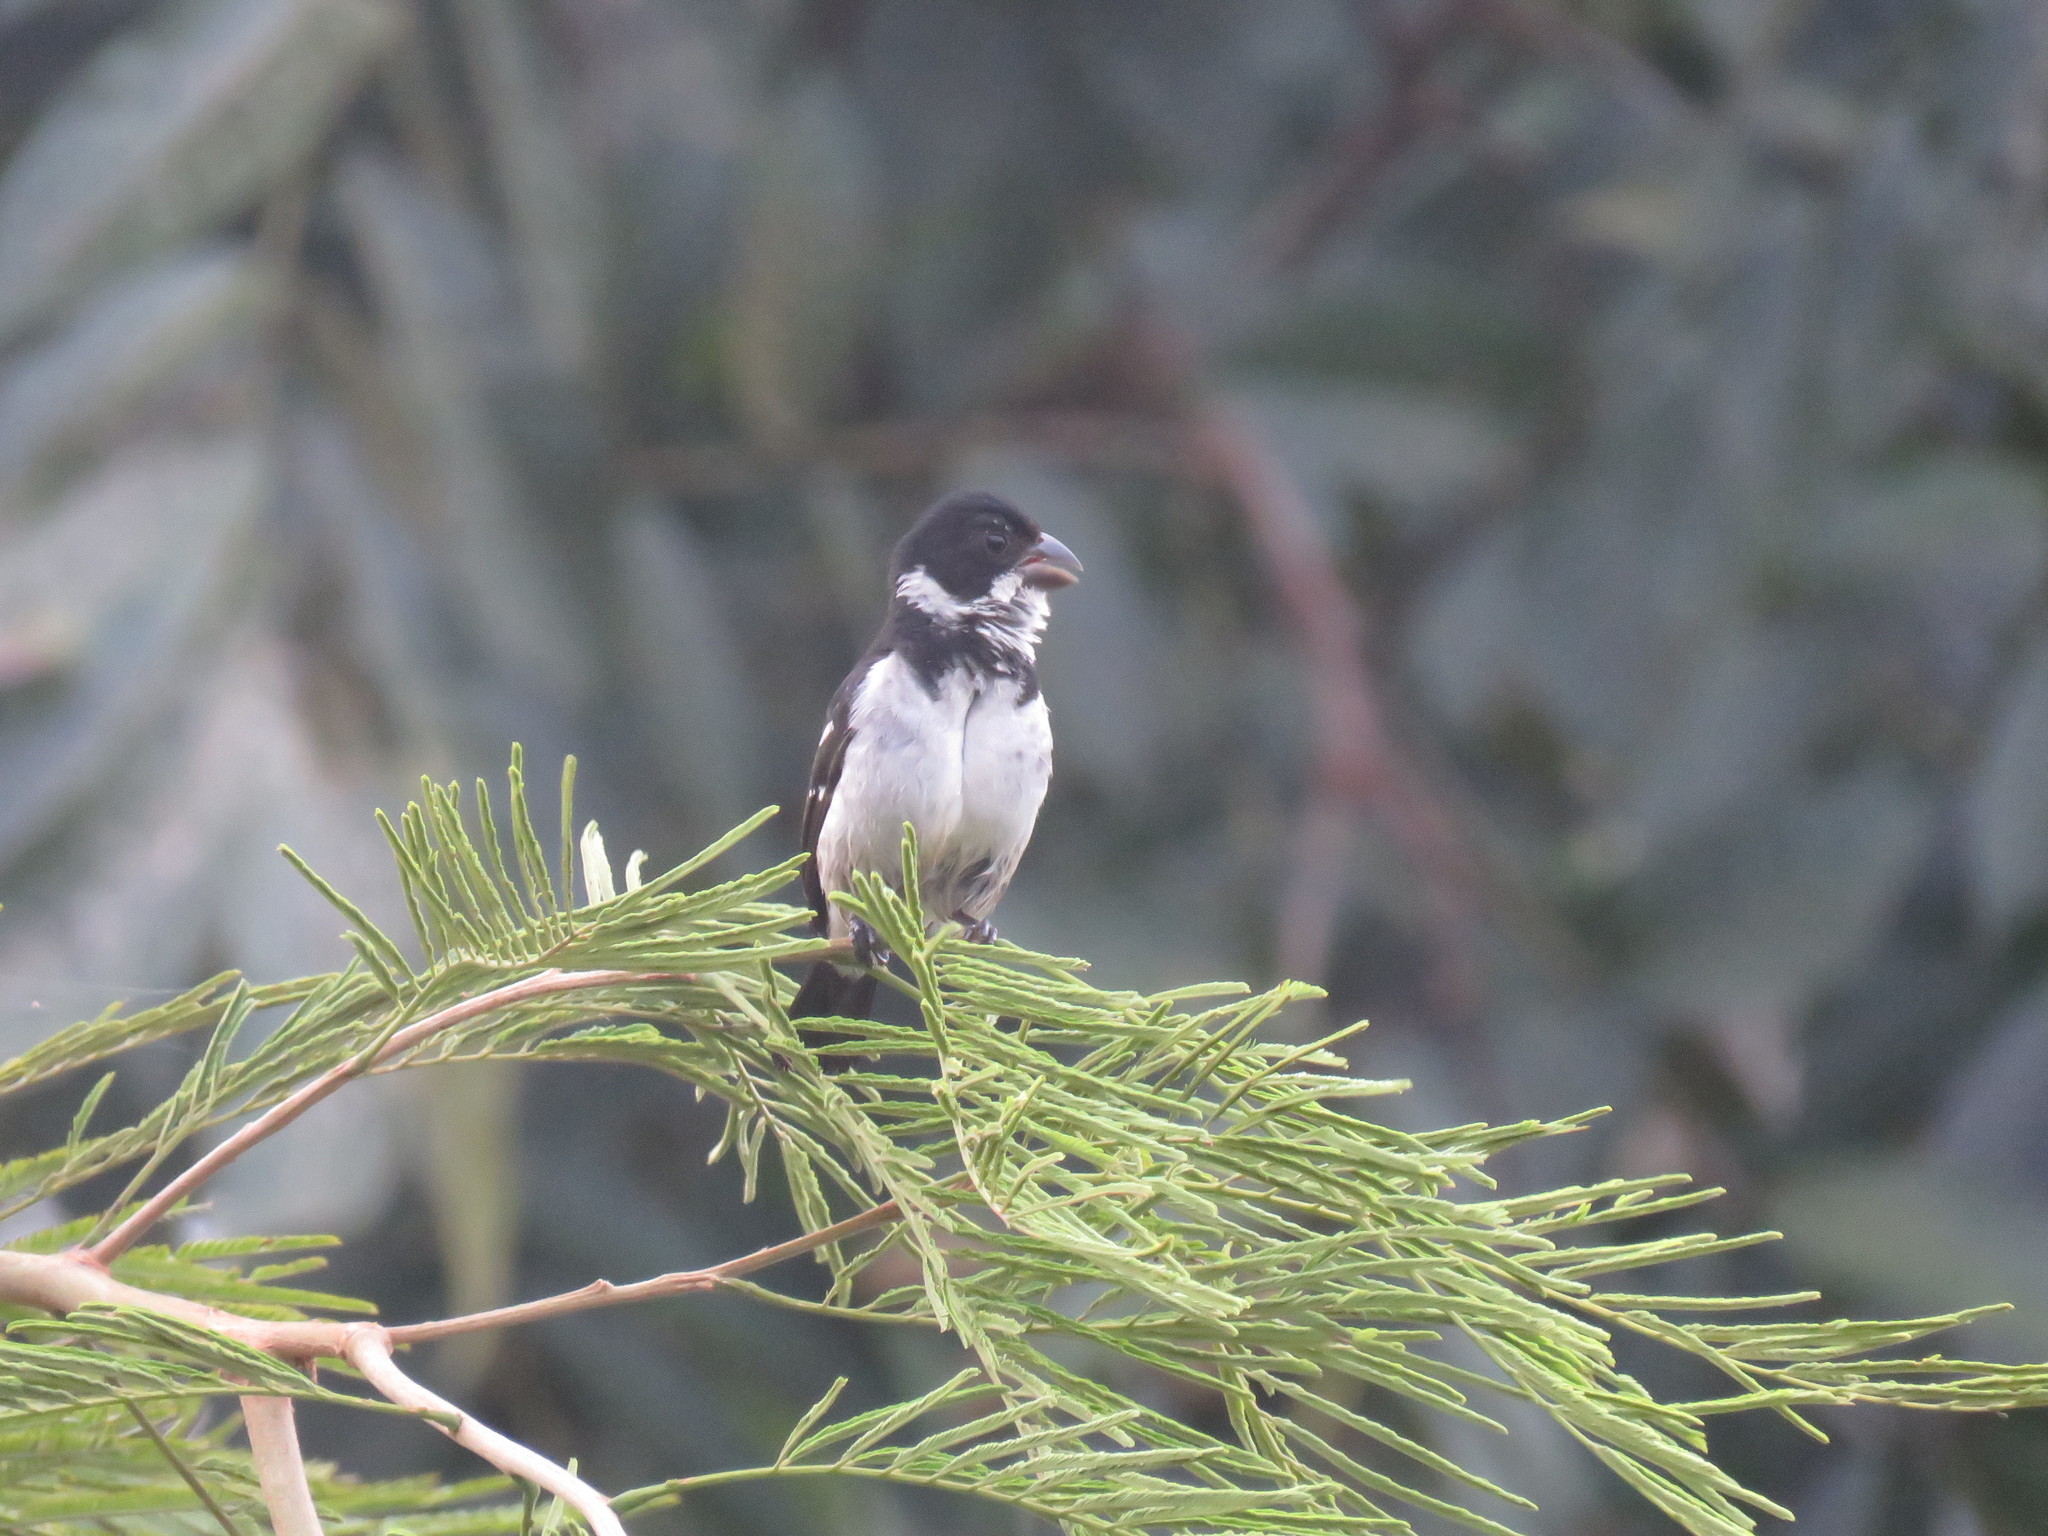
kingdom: Animalia
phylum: Chordata
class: Aves
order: Passeriformes
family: Thraupidae
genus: Sporophila
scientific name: Sporophila americana
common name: Wing-barred seedeater
